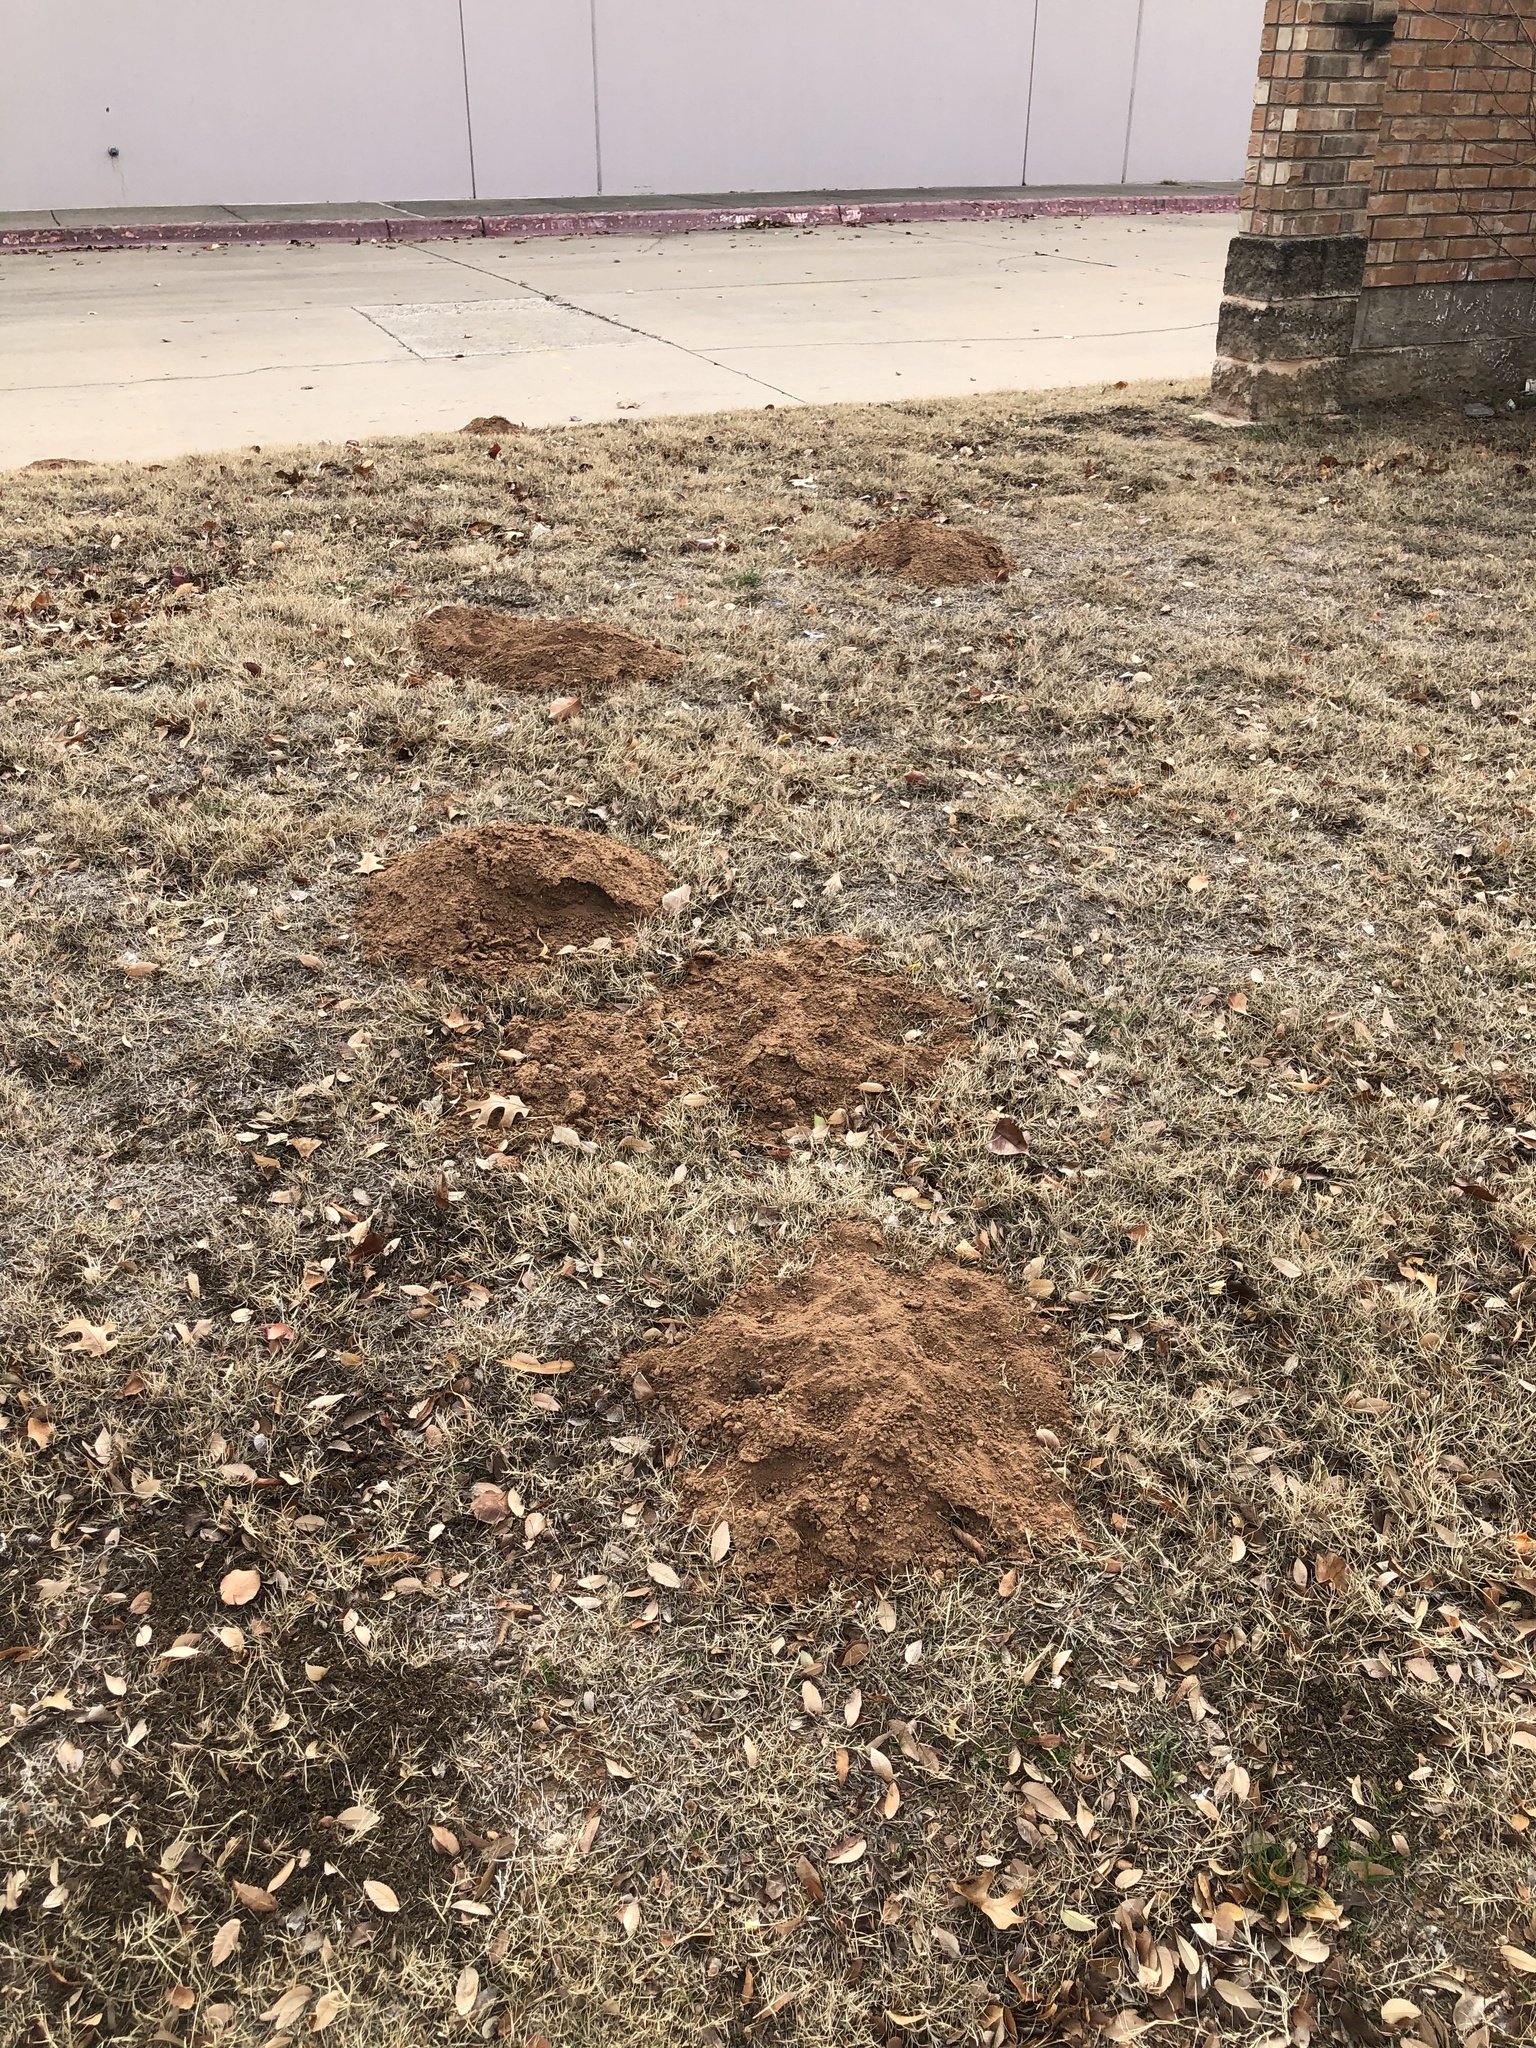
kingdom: Animalia
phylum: Chordata
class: Mammalia
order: Rodentia
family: Geomyidae
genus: Geomys
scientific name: Geomys bursarius
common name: Plains pocket gopher
